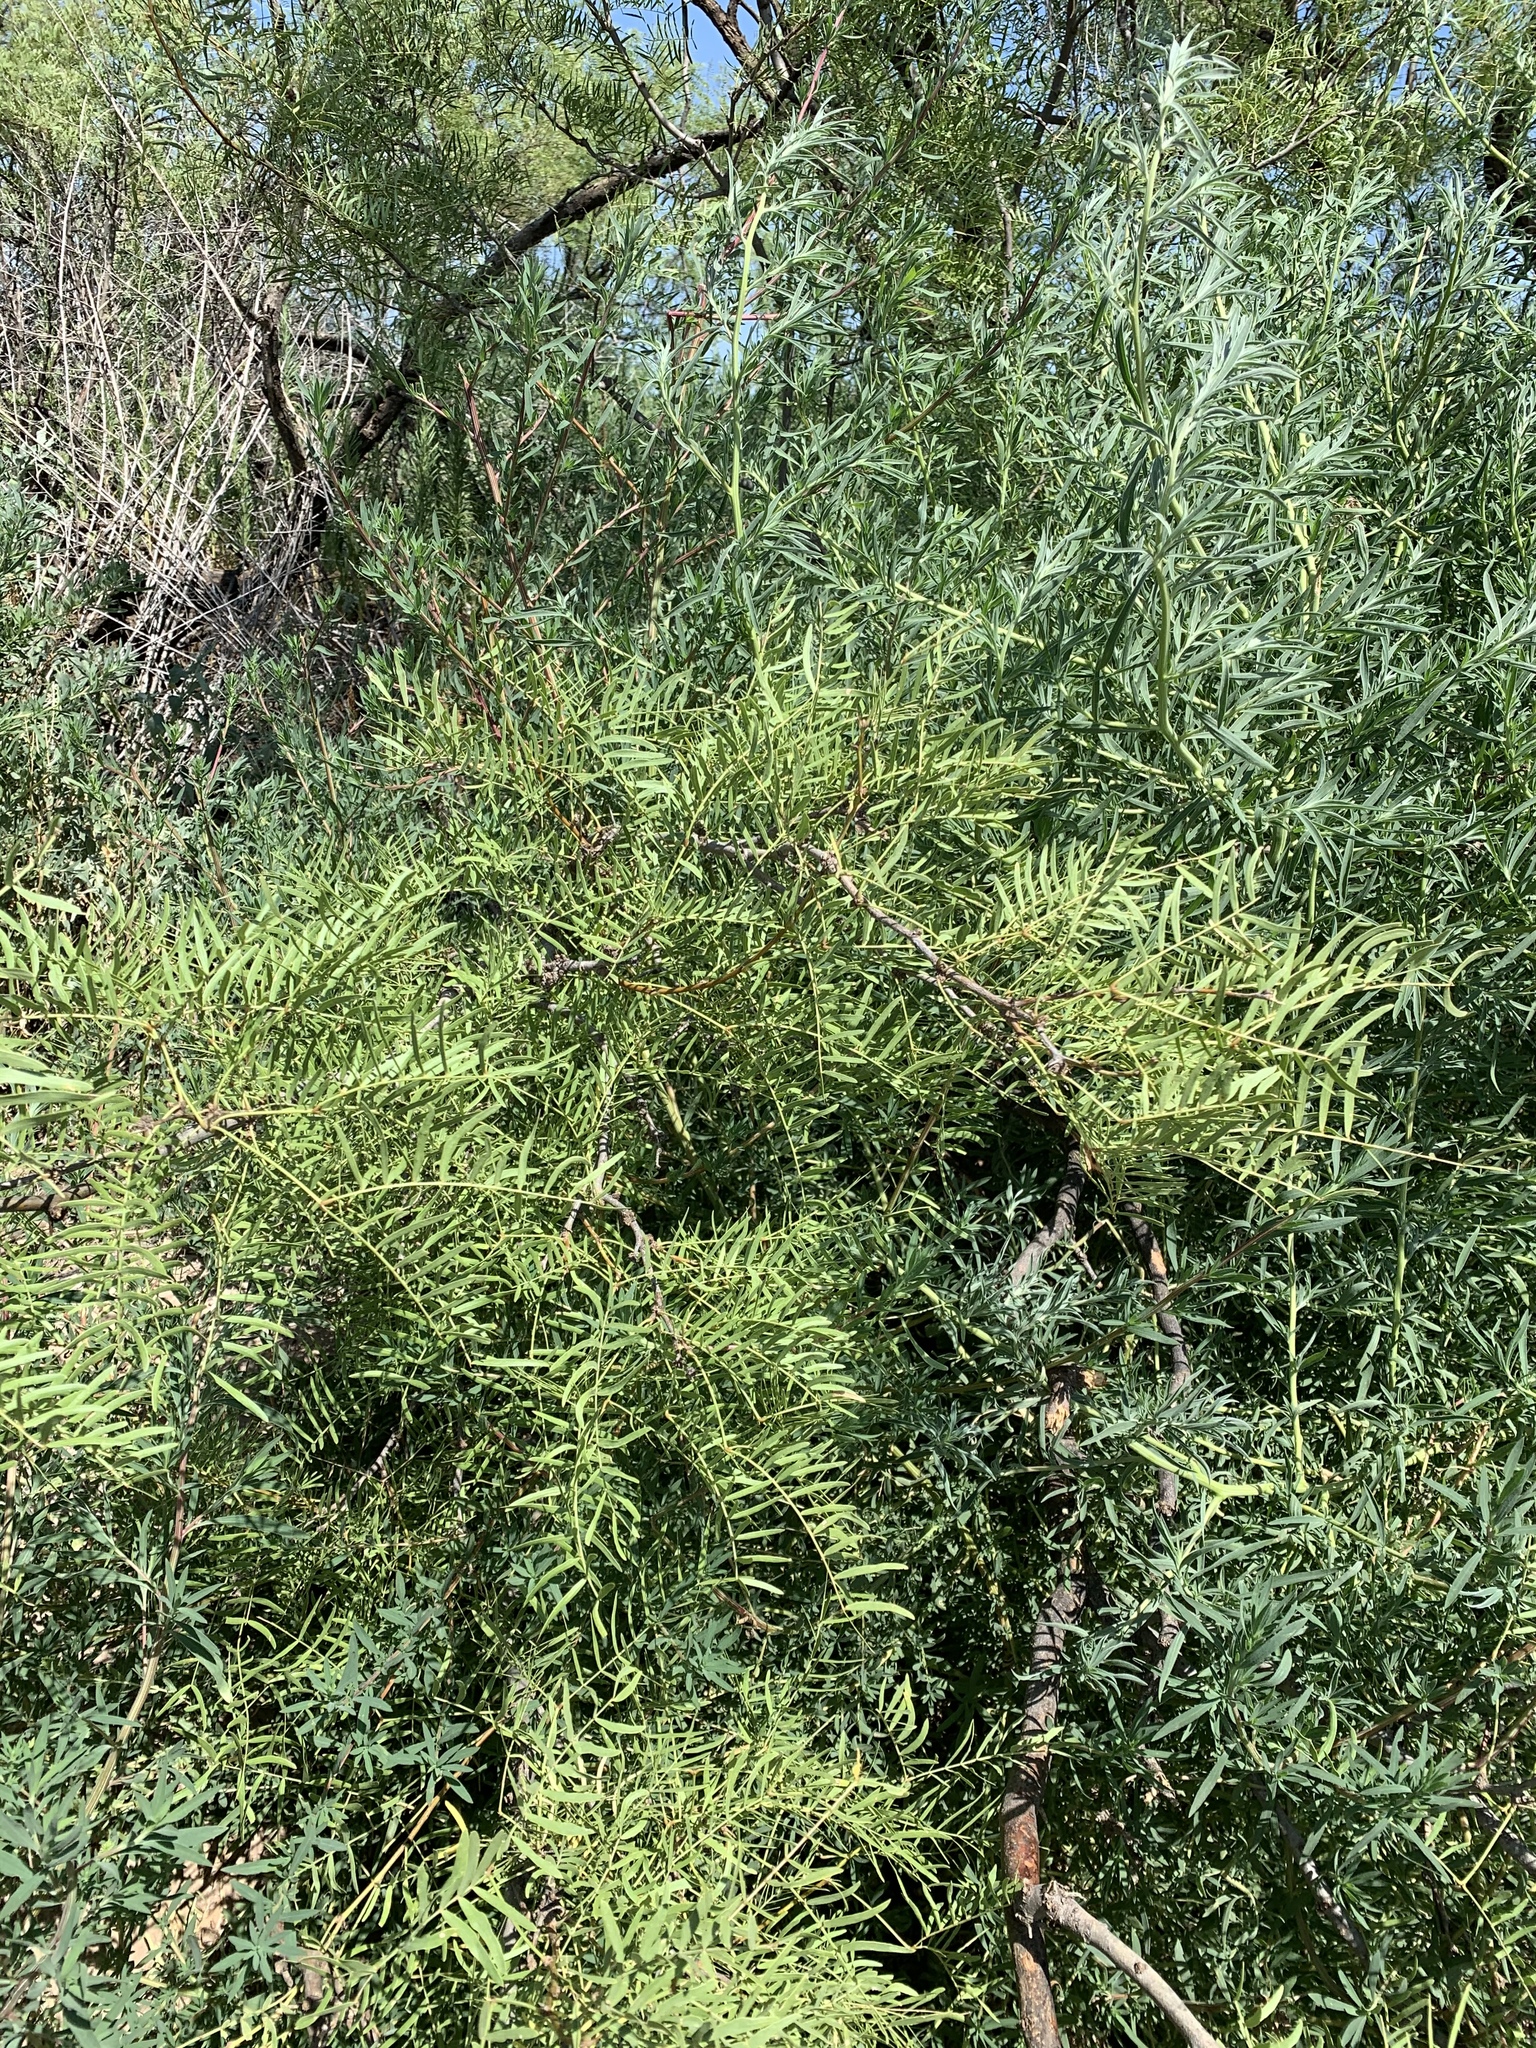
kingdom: Plantae
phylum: Tracheophyta
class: Magnoliopsida
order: Fabales
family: Fabaceae
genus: Prosopis
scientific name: Prosopis glandulosa
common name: Honey mesquite
